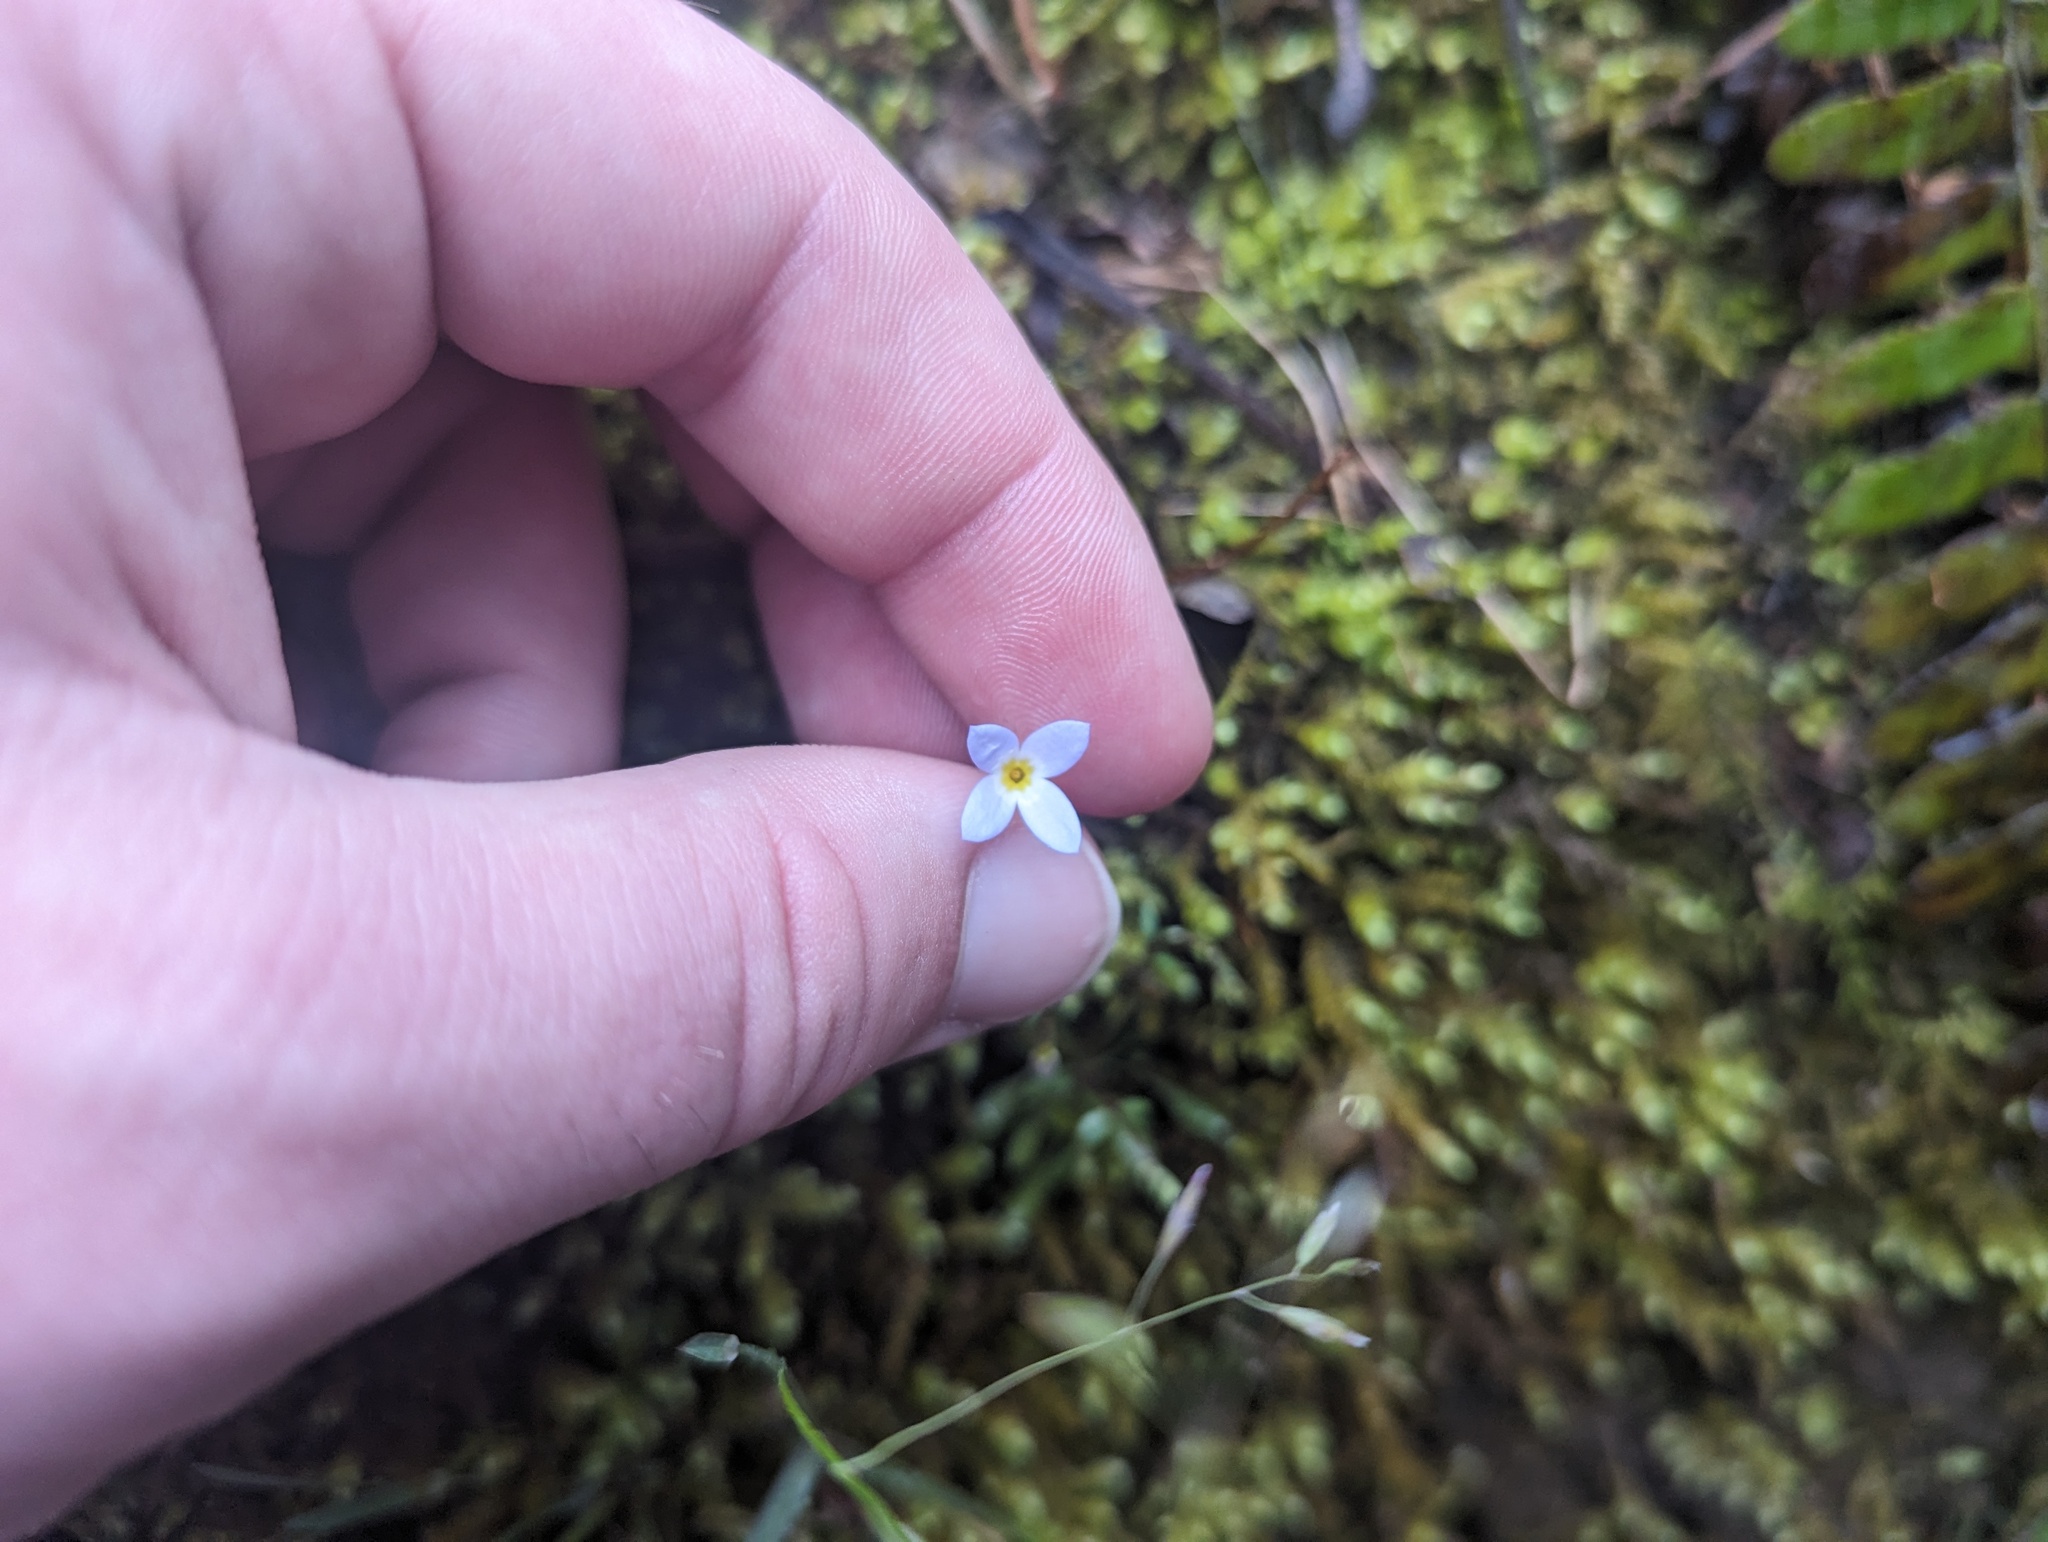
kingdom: Plantae
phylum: Tracheophyta
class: Magnoliopsida
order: Gentianales
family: Rubiaceae
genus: Houstonia
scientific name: Houstonia caerulea
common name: Bluets
